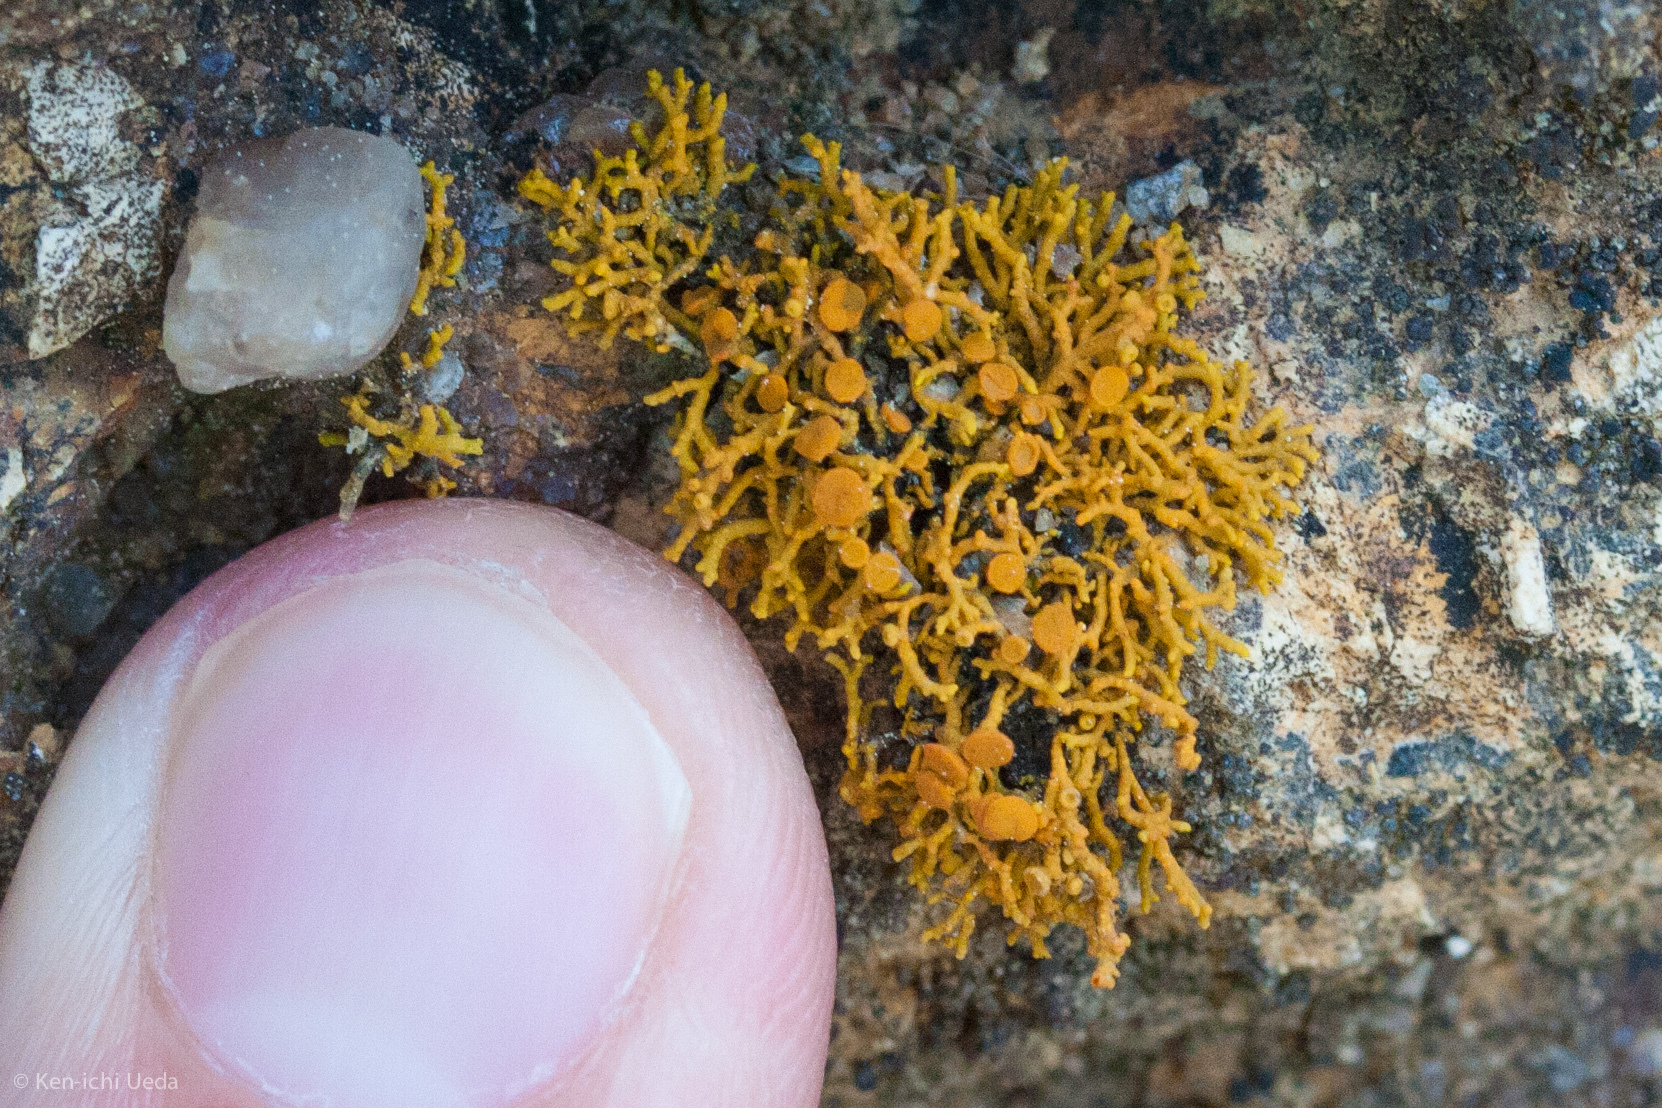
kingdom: Fungi
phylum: Ascomycota
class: Lecanoromycetes
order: Teloschistales
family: Teloschistaceae
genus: Polycauliona
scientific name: Polycauliona coralloides
